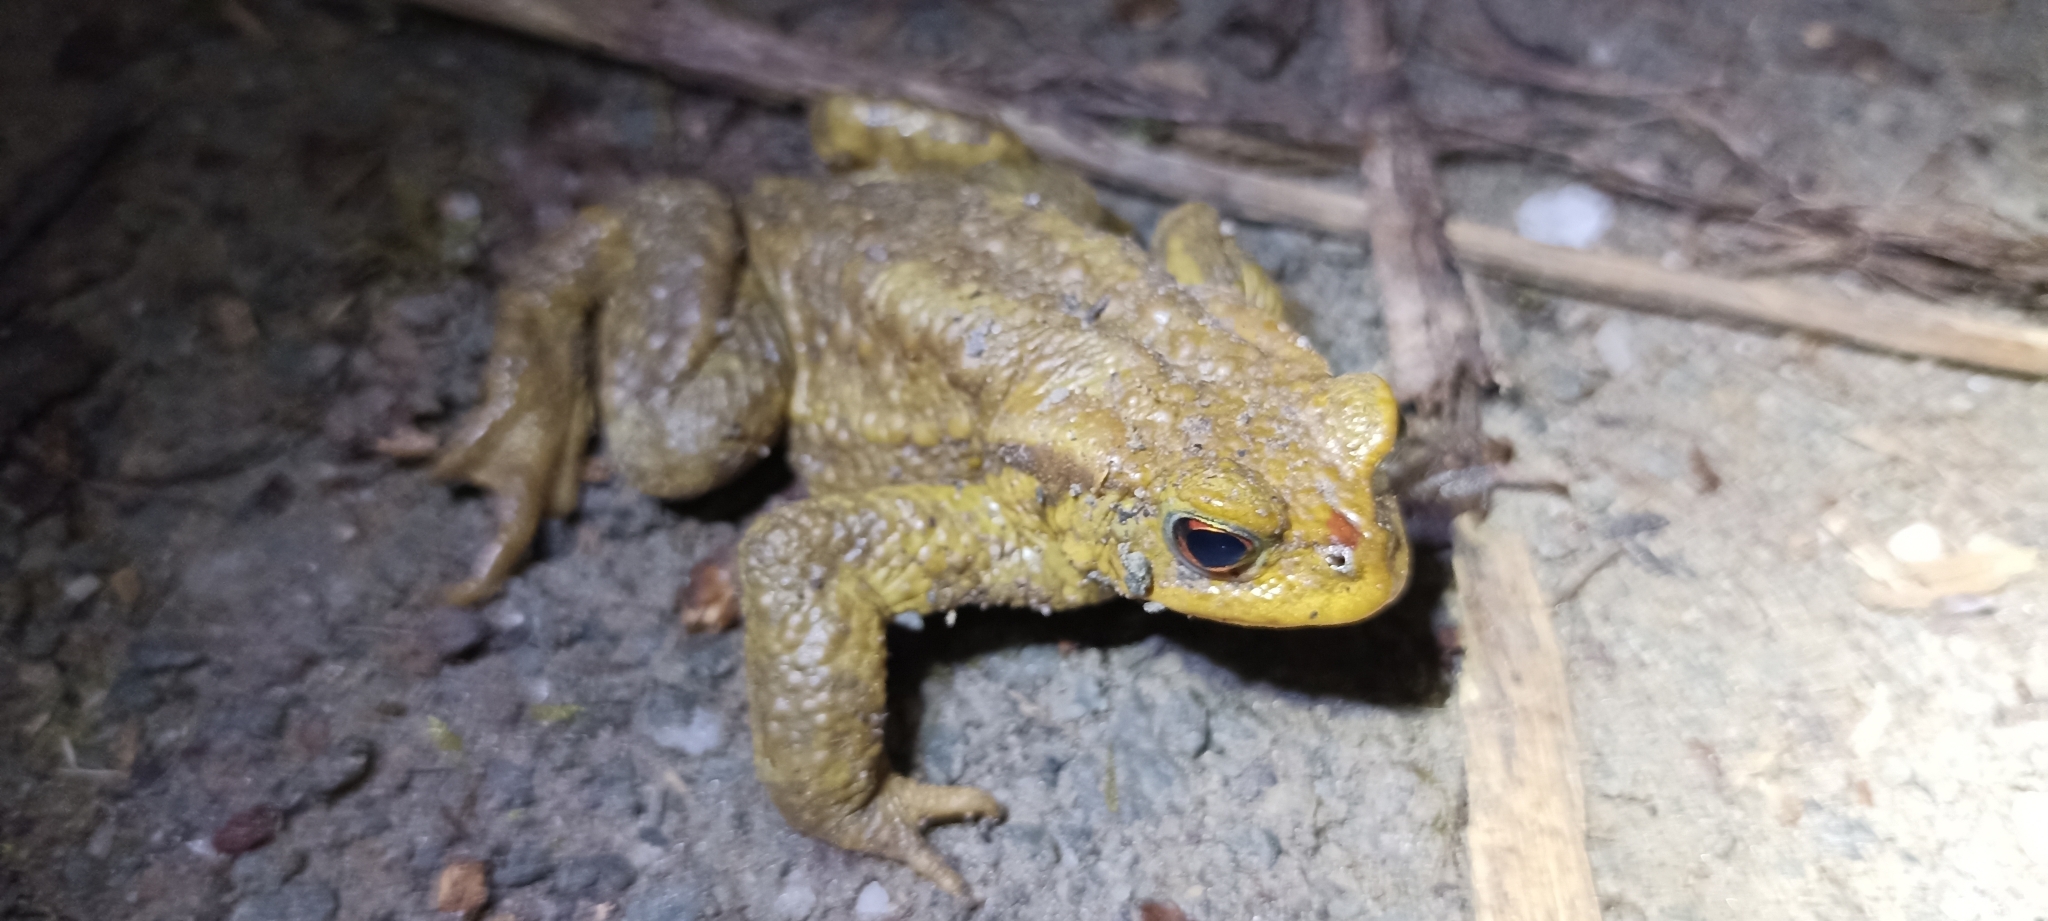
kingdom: Animalia
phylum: Chordata
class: Amphibia
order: Anura
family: Bufonidae
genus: Bufo
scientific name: Bufo spinosus
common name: Western common toad
